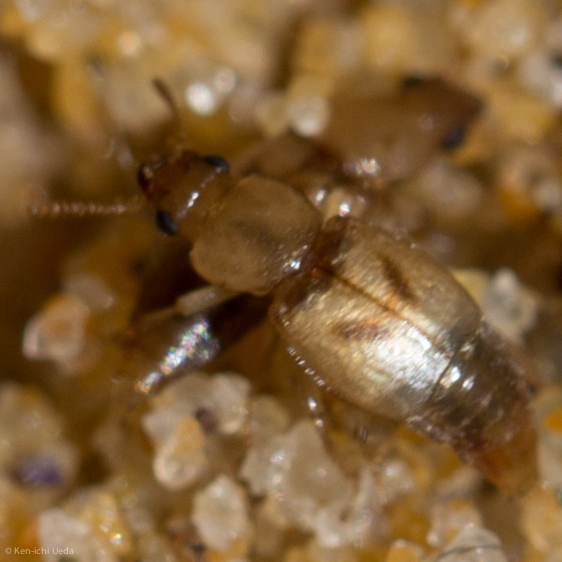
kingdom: Animalia
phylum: Arthropoda
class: Insecta
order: Coleoptera
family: Staphylinidae
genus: Sartallus
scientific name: Sartallus signatus
